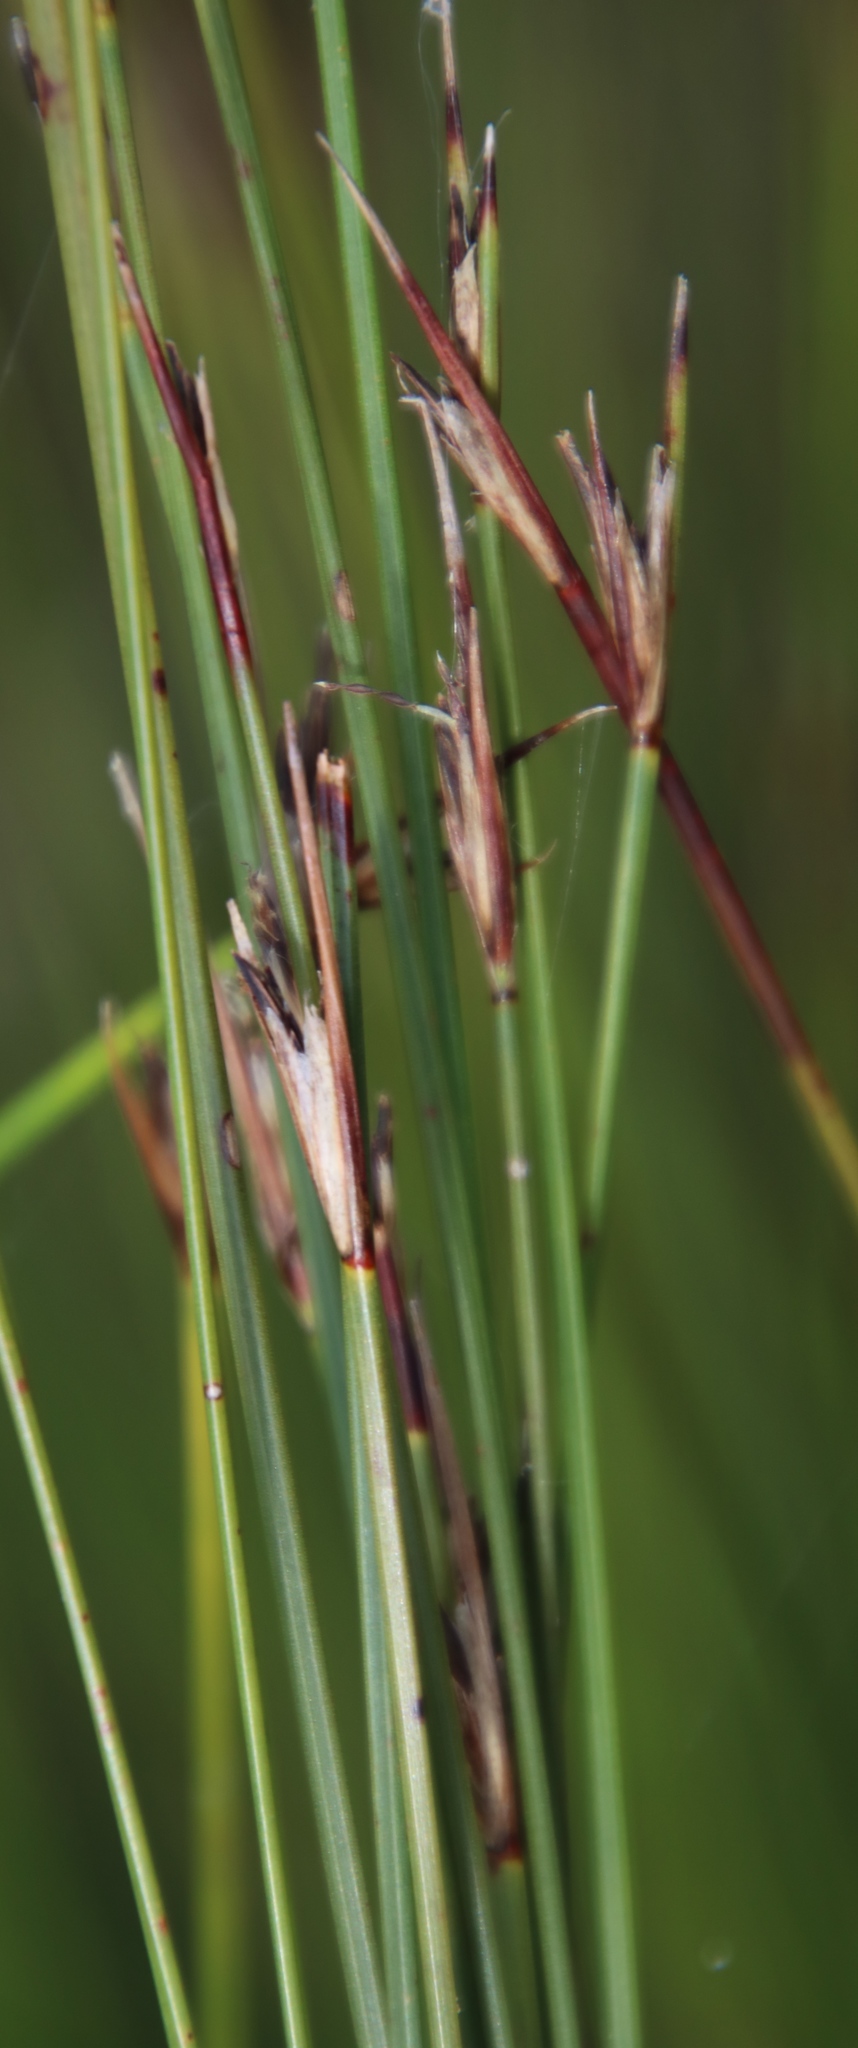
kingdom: Plantae
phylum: Tracheophyta
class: Liliopsida
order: Poales
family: Cyperaceae
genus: Schoenus
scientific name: Schoenus selinae
